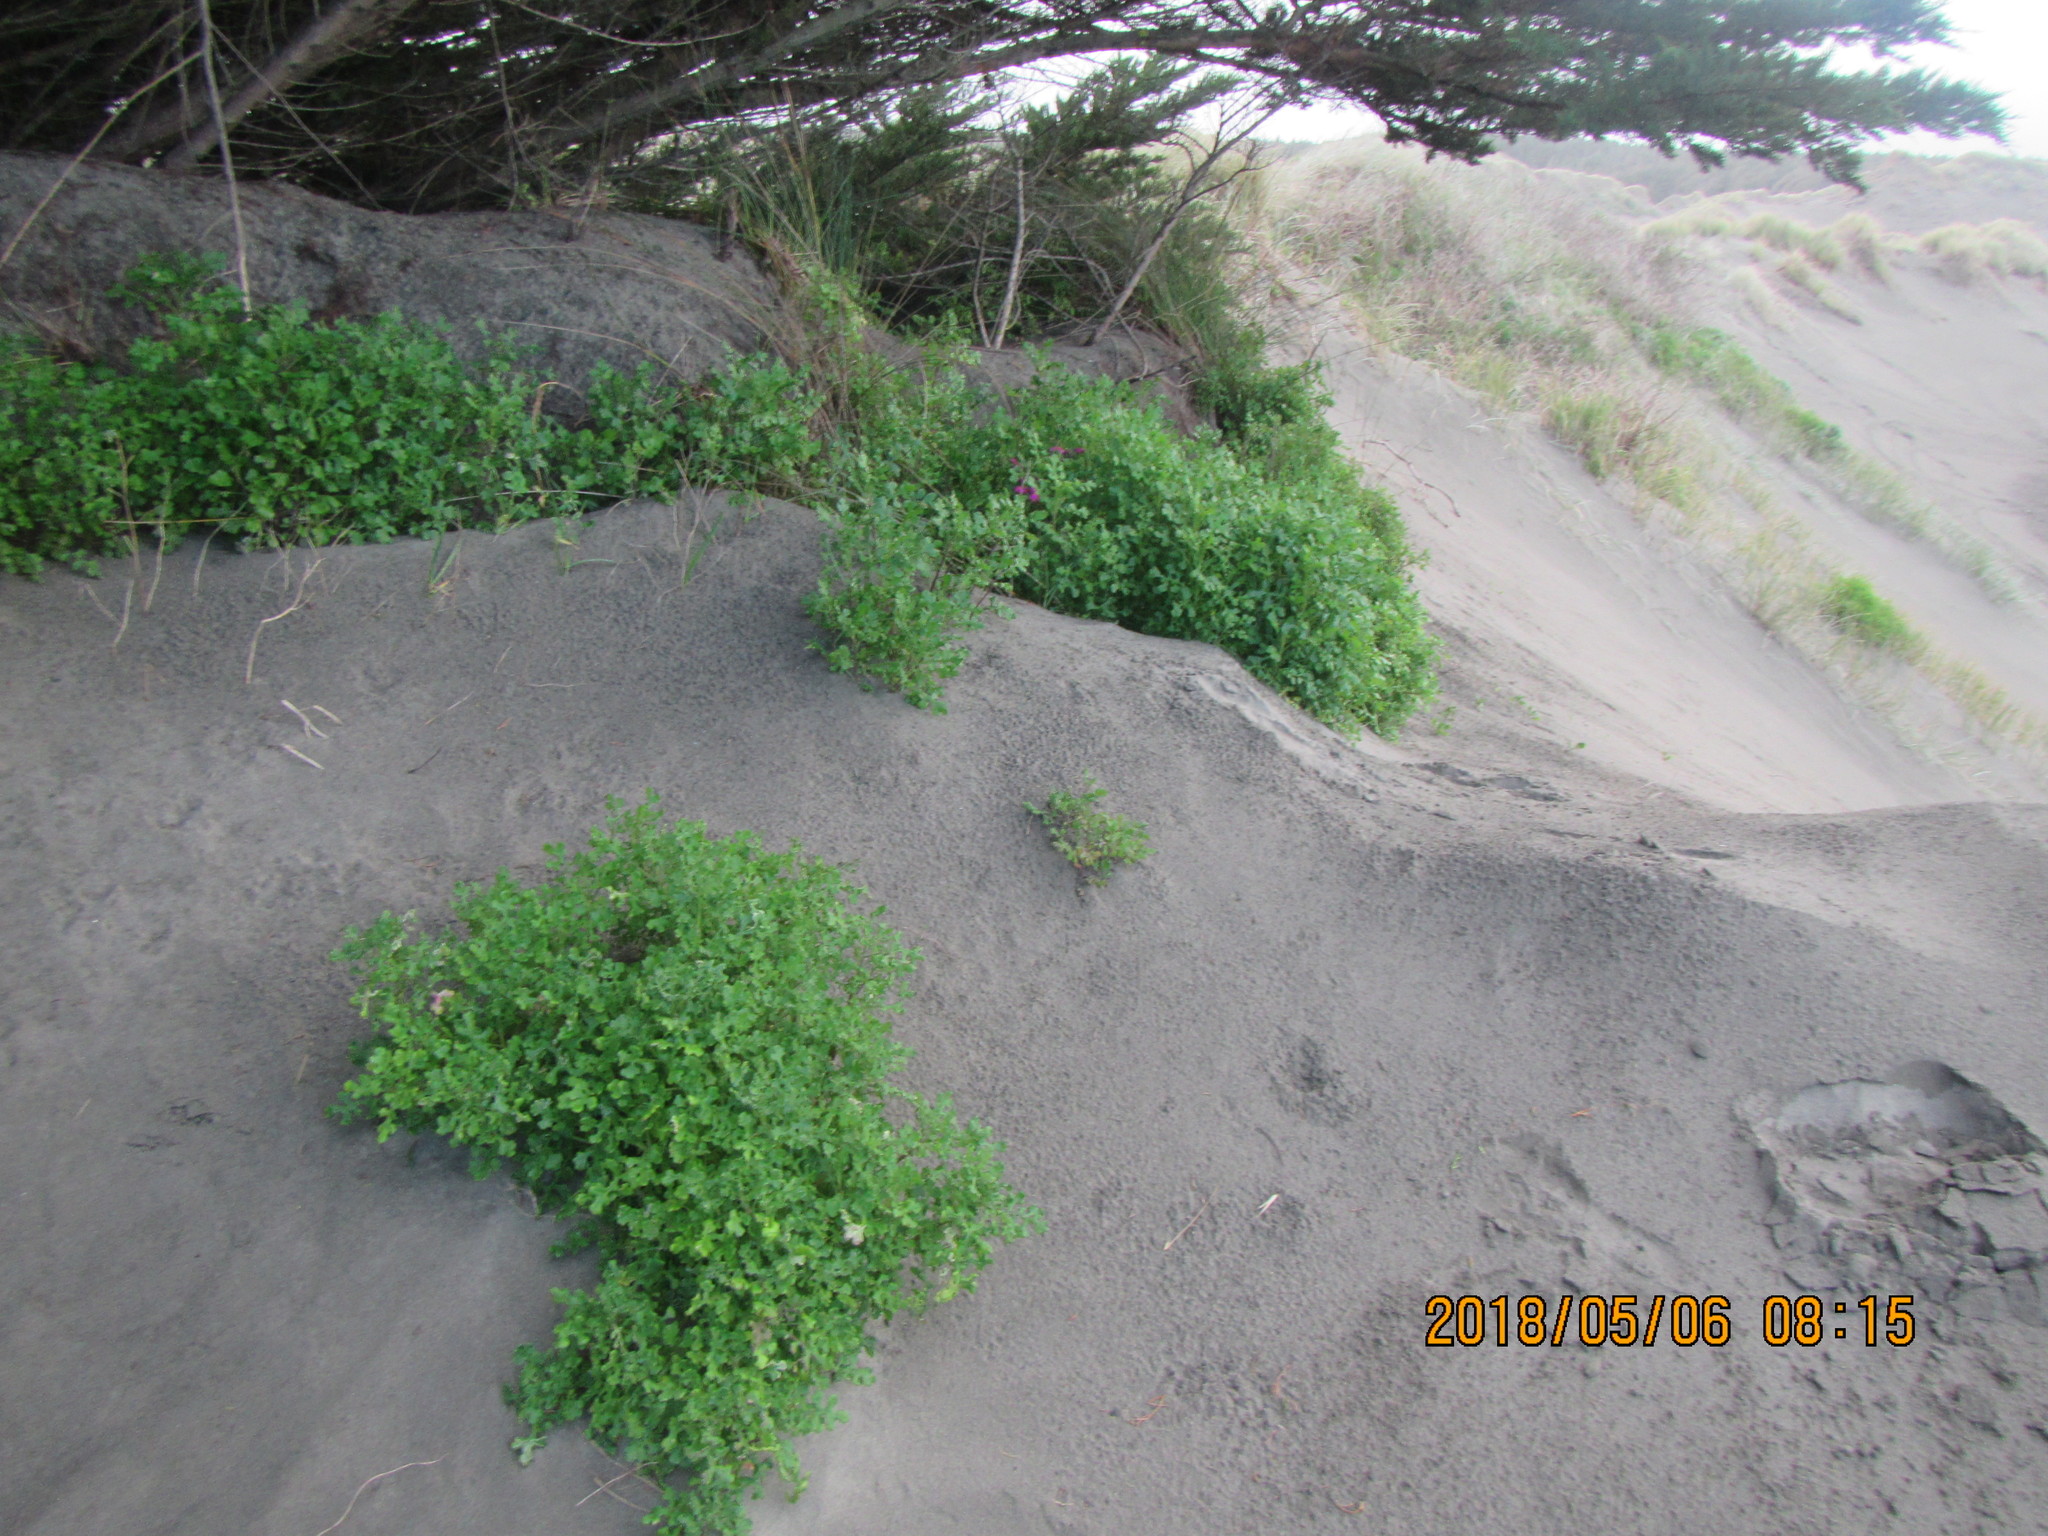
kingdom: Plantae
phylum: Tracheophyta
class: Magnoliopsida
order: Asterales
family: Asteraceae
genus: Senecio
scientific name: Senecio elegans
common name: Purple groundsel
